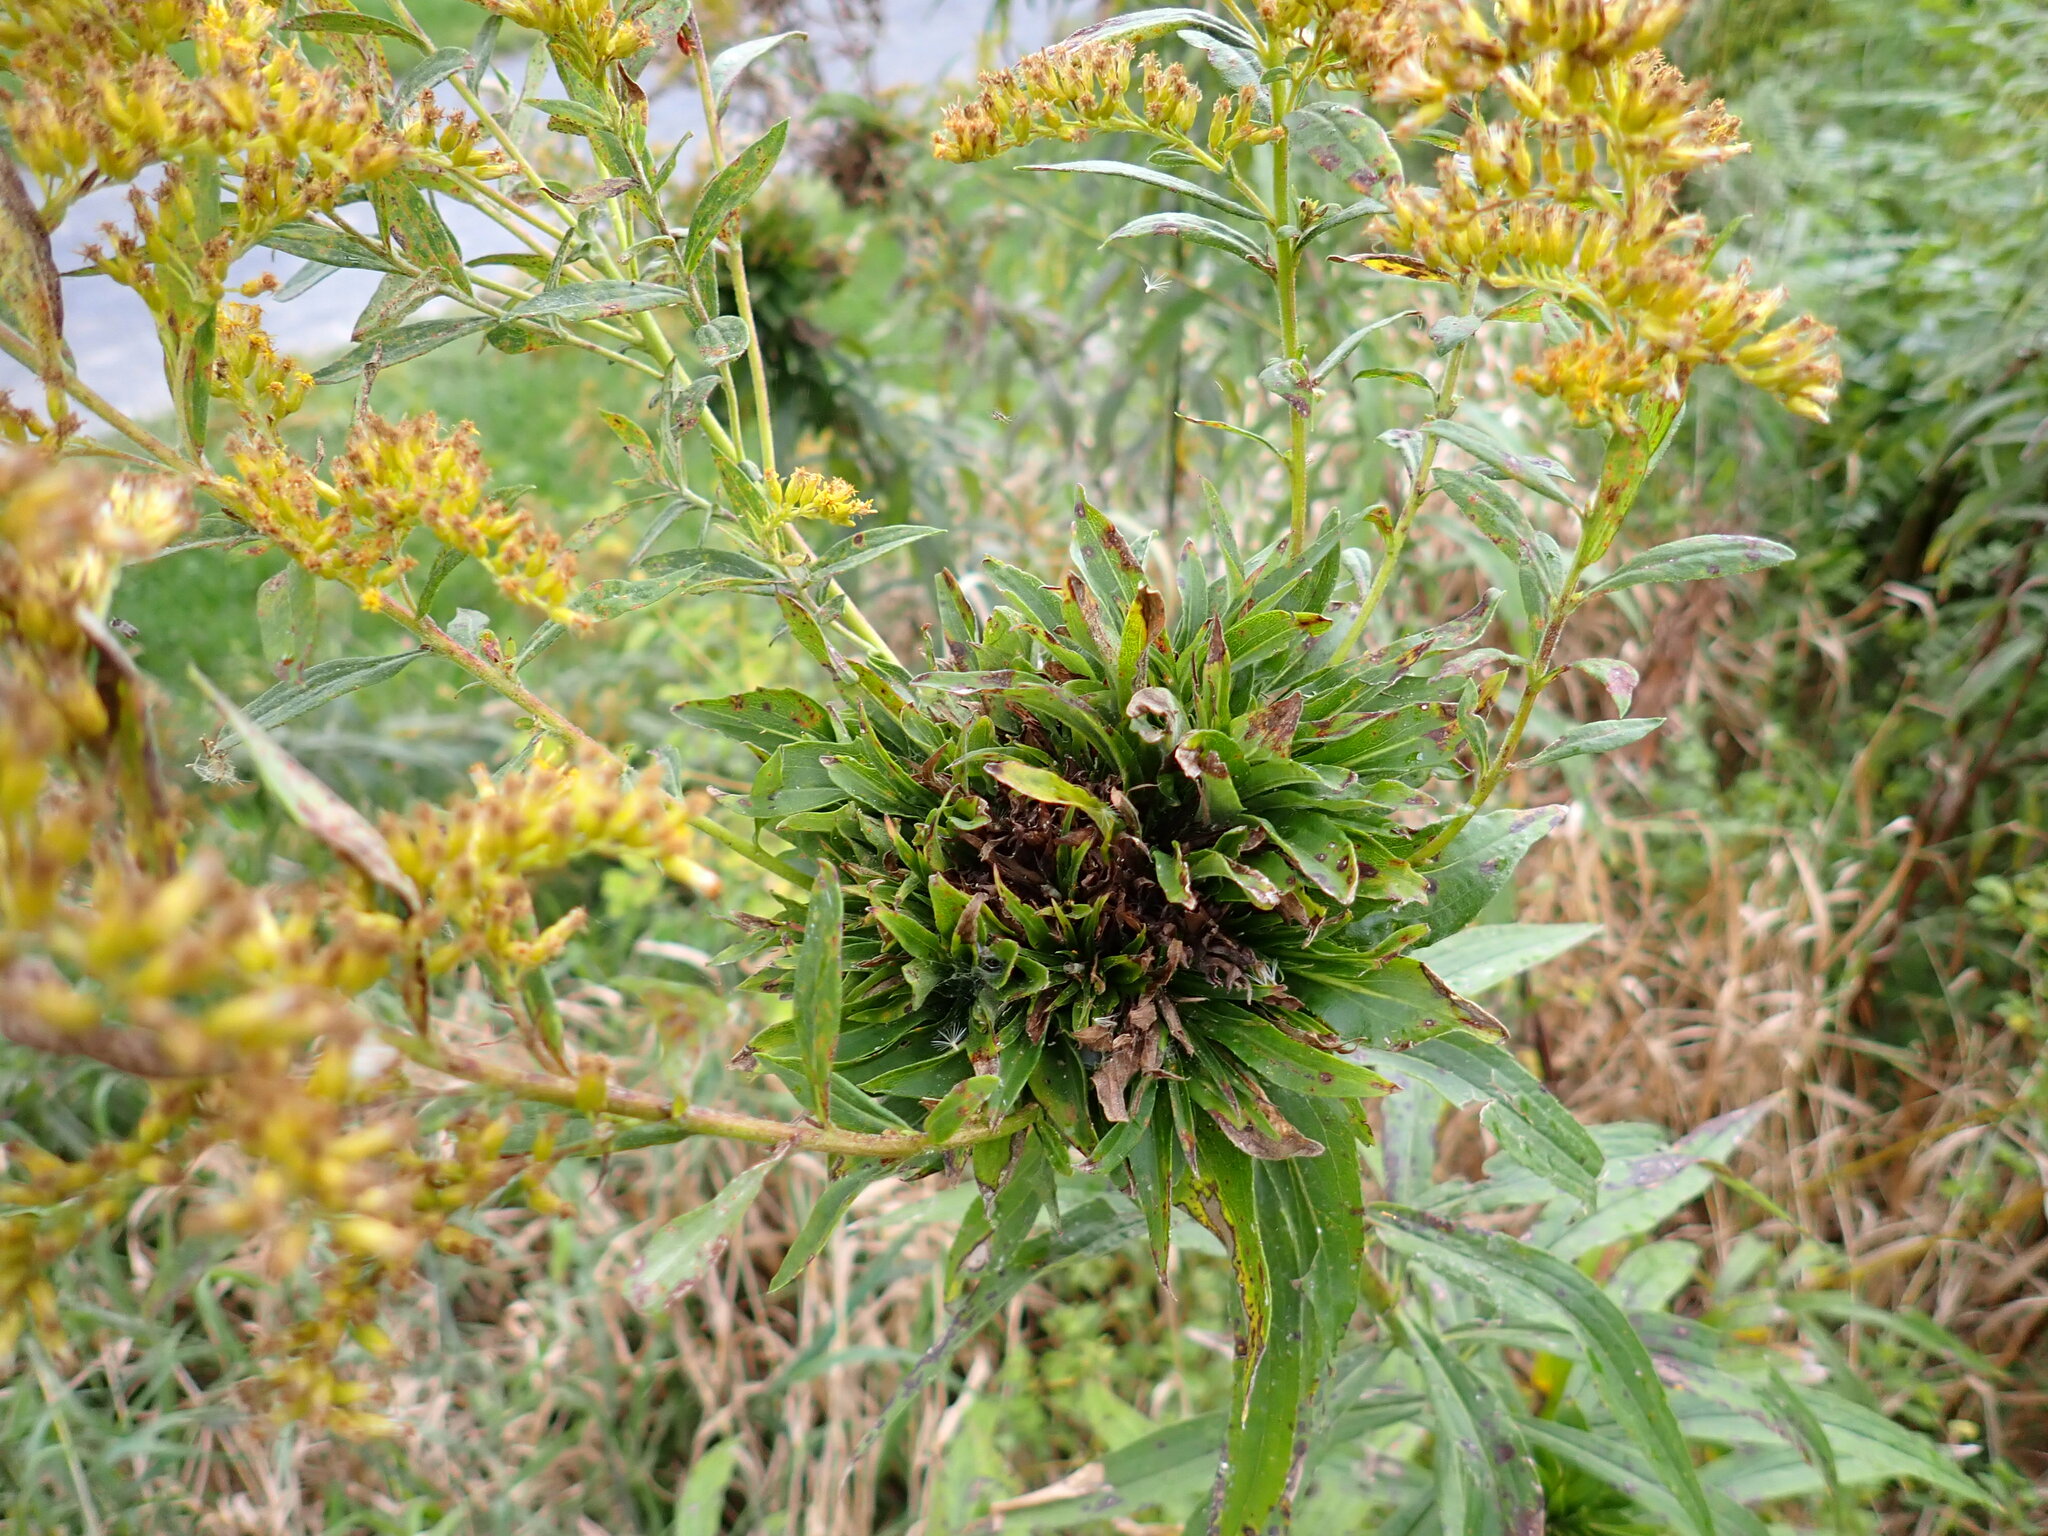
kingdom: Animalia
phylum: Arthropoda
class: Insecta
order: Diptera
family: Cecidomyiidae
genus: Rhopalomyia
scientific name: Rhopalomyia solidaginis
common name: Goldenrod bunch gall midge
